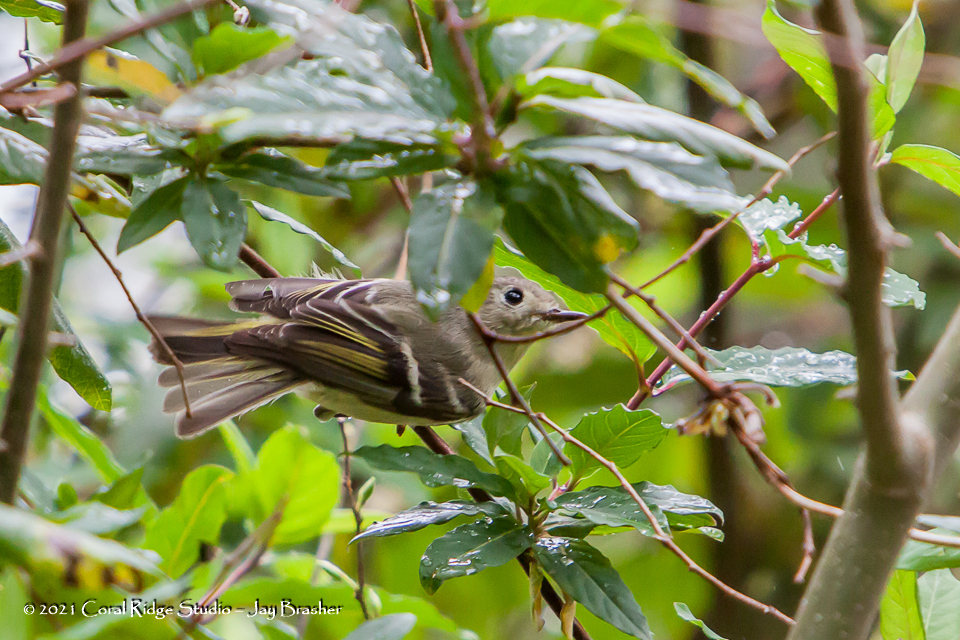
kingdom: Animalia
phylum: Chordata
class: Aves
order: Passeriformes
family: Regulidae
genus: Regulus
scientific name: Regulus calendula
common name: Ruby-crowned kinglet
